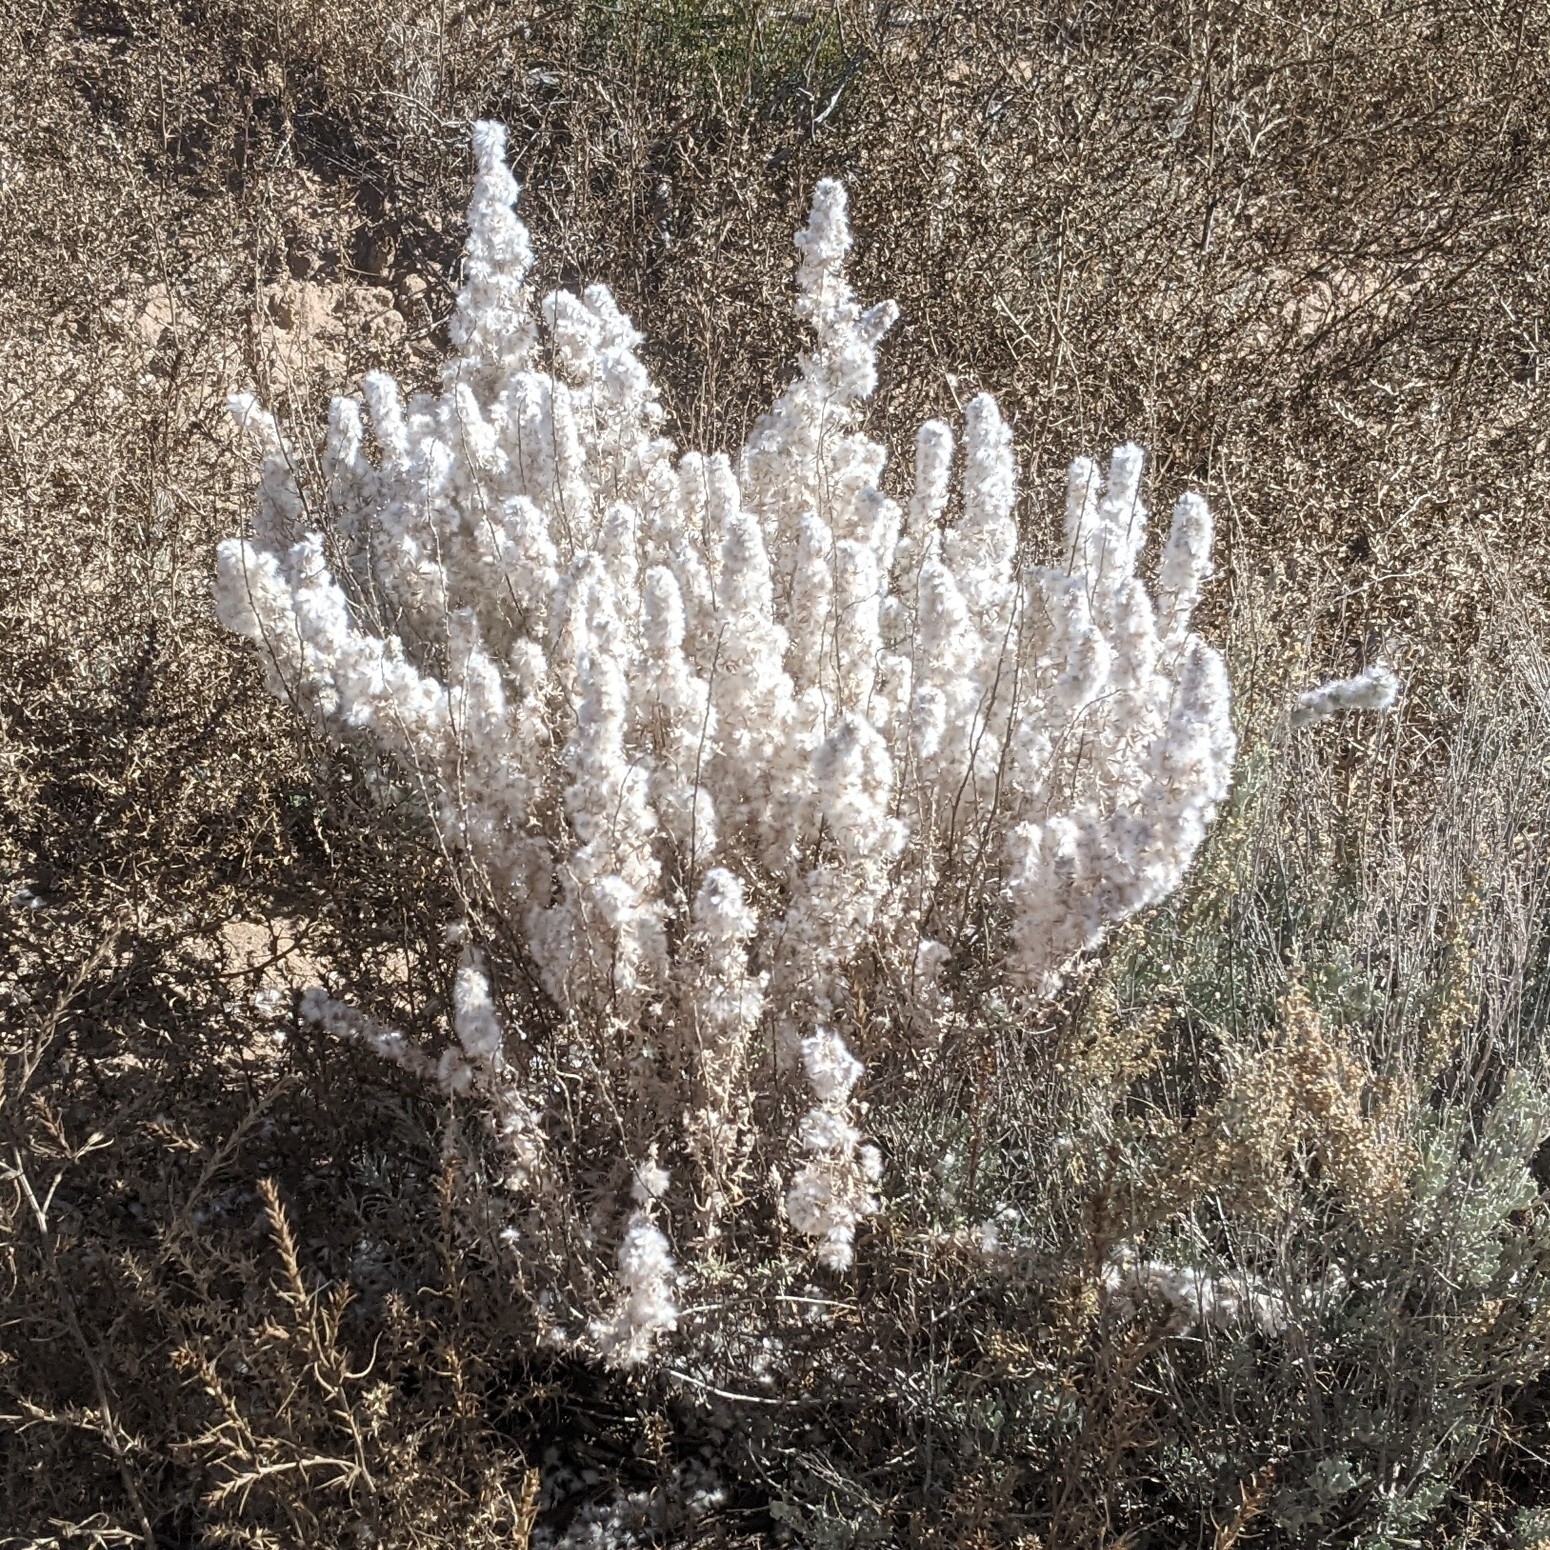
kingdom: Plantae
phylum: Tracheophyta
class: Magnoliopsida
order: Caryophyllales
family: Amaranthaceae
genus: Krascheninnikovia
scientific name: Krascheninnikovia lanata
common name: Winterfat
